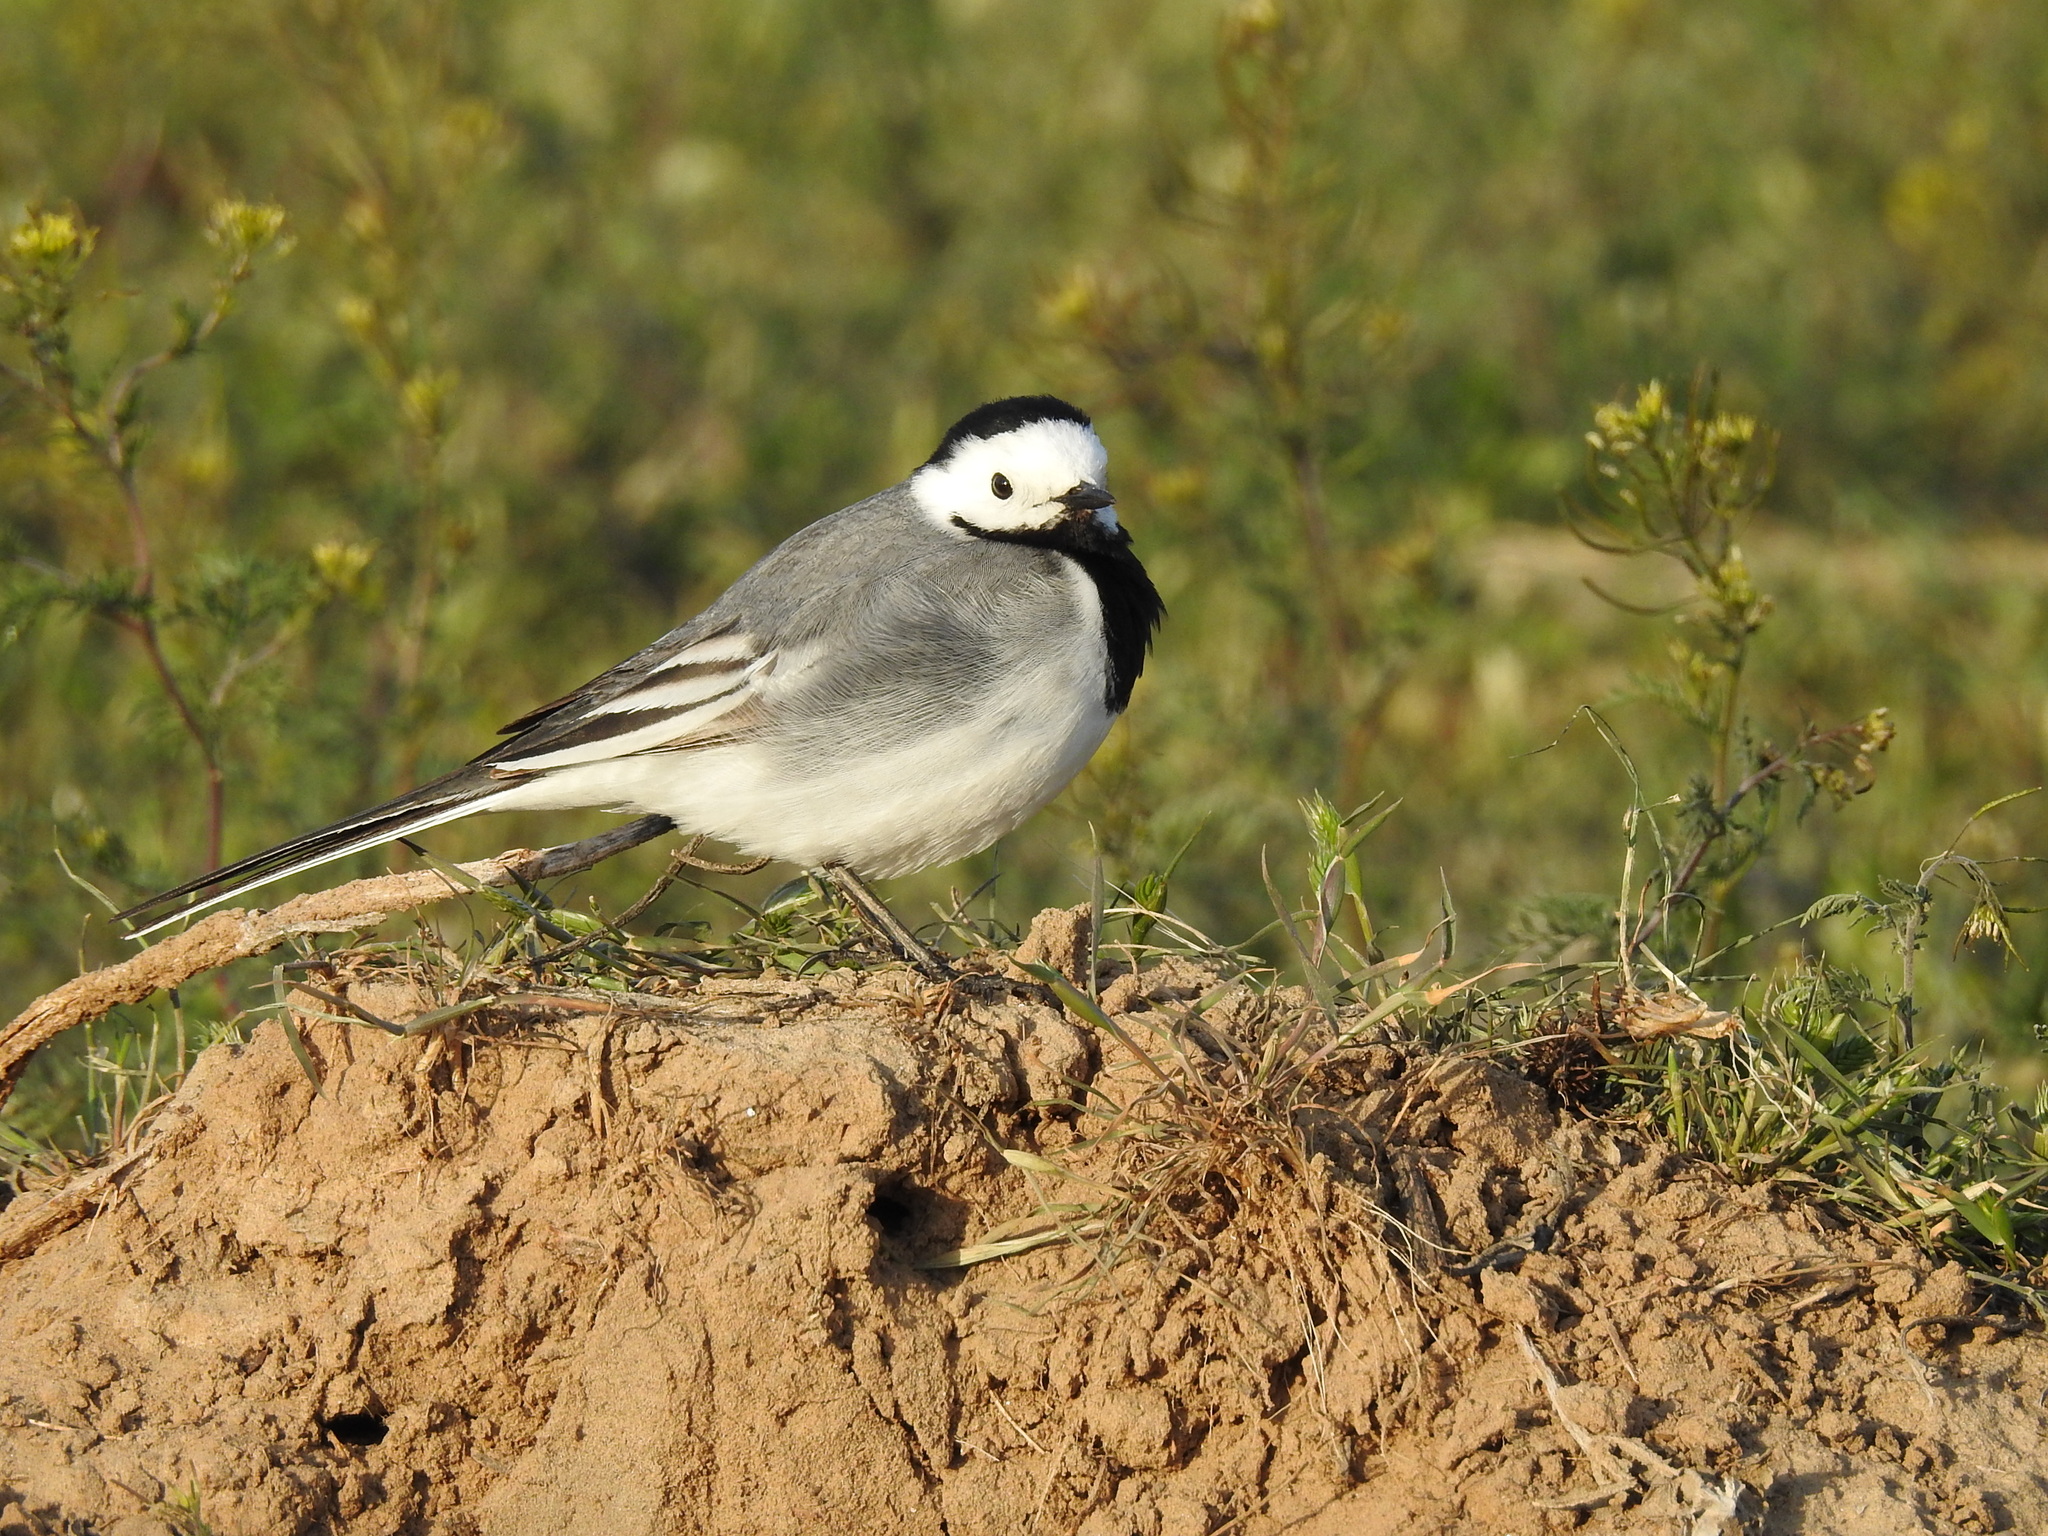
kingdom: Animalia
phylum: Chordata
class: Aves
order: Passeriformes
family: Motacillidae
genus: Motacilla
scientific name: Motacilla alba
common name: White wagtail
